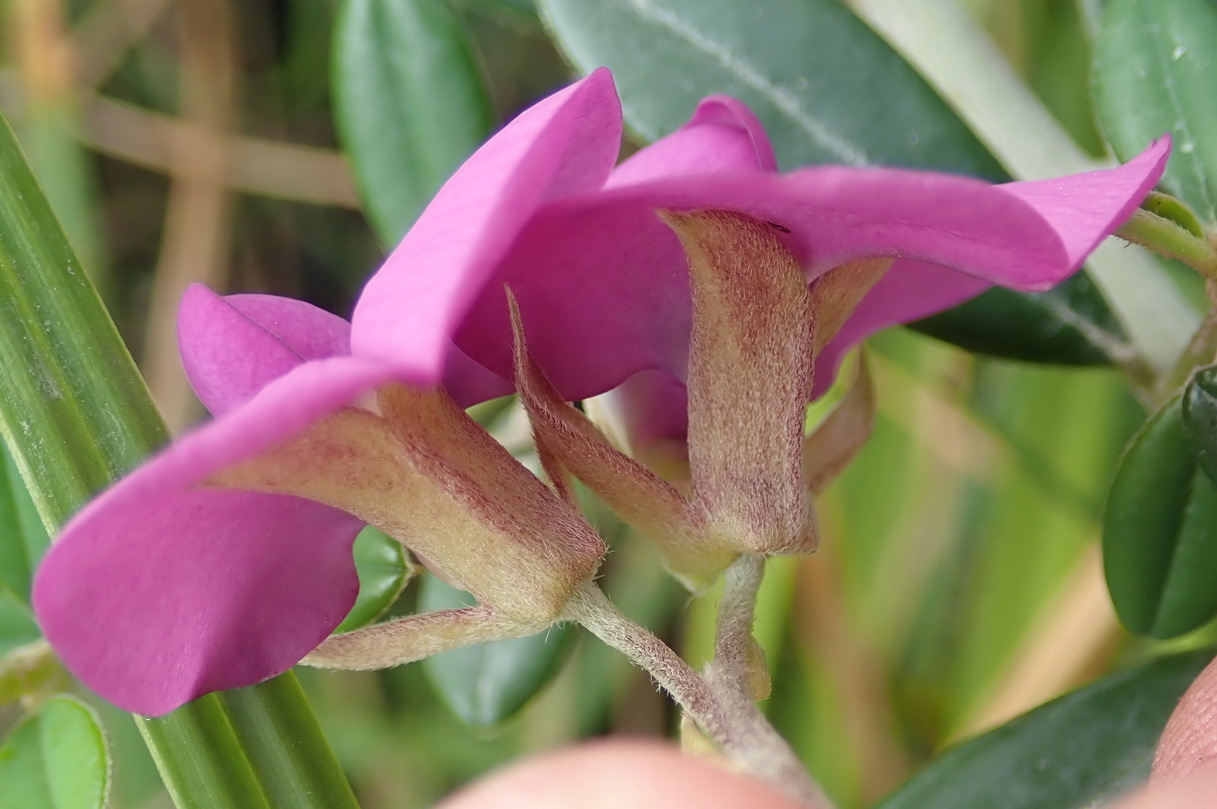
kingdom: Plantae
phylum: Tracheophyta
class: Magnoliopsida
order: Fabales
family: Fabaceae
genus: Podalyria
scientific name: Podalyria buxifolia
